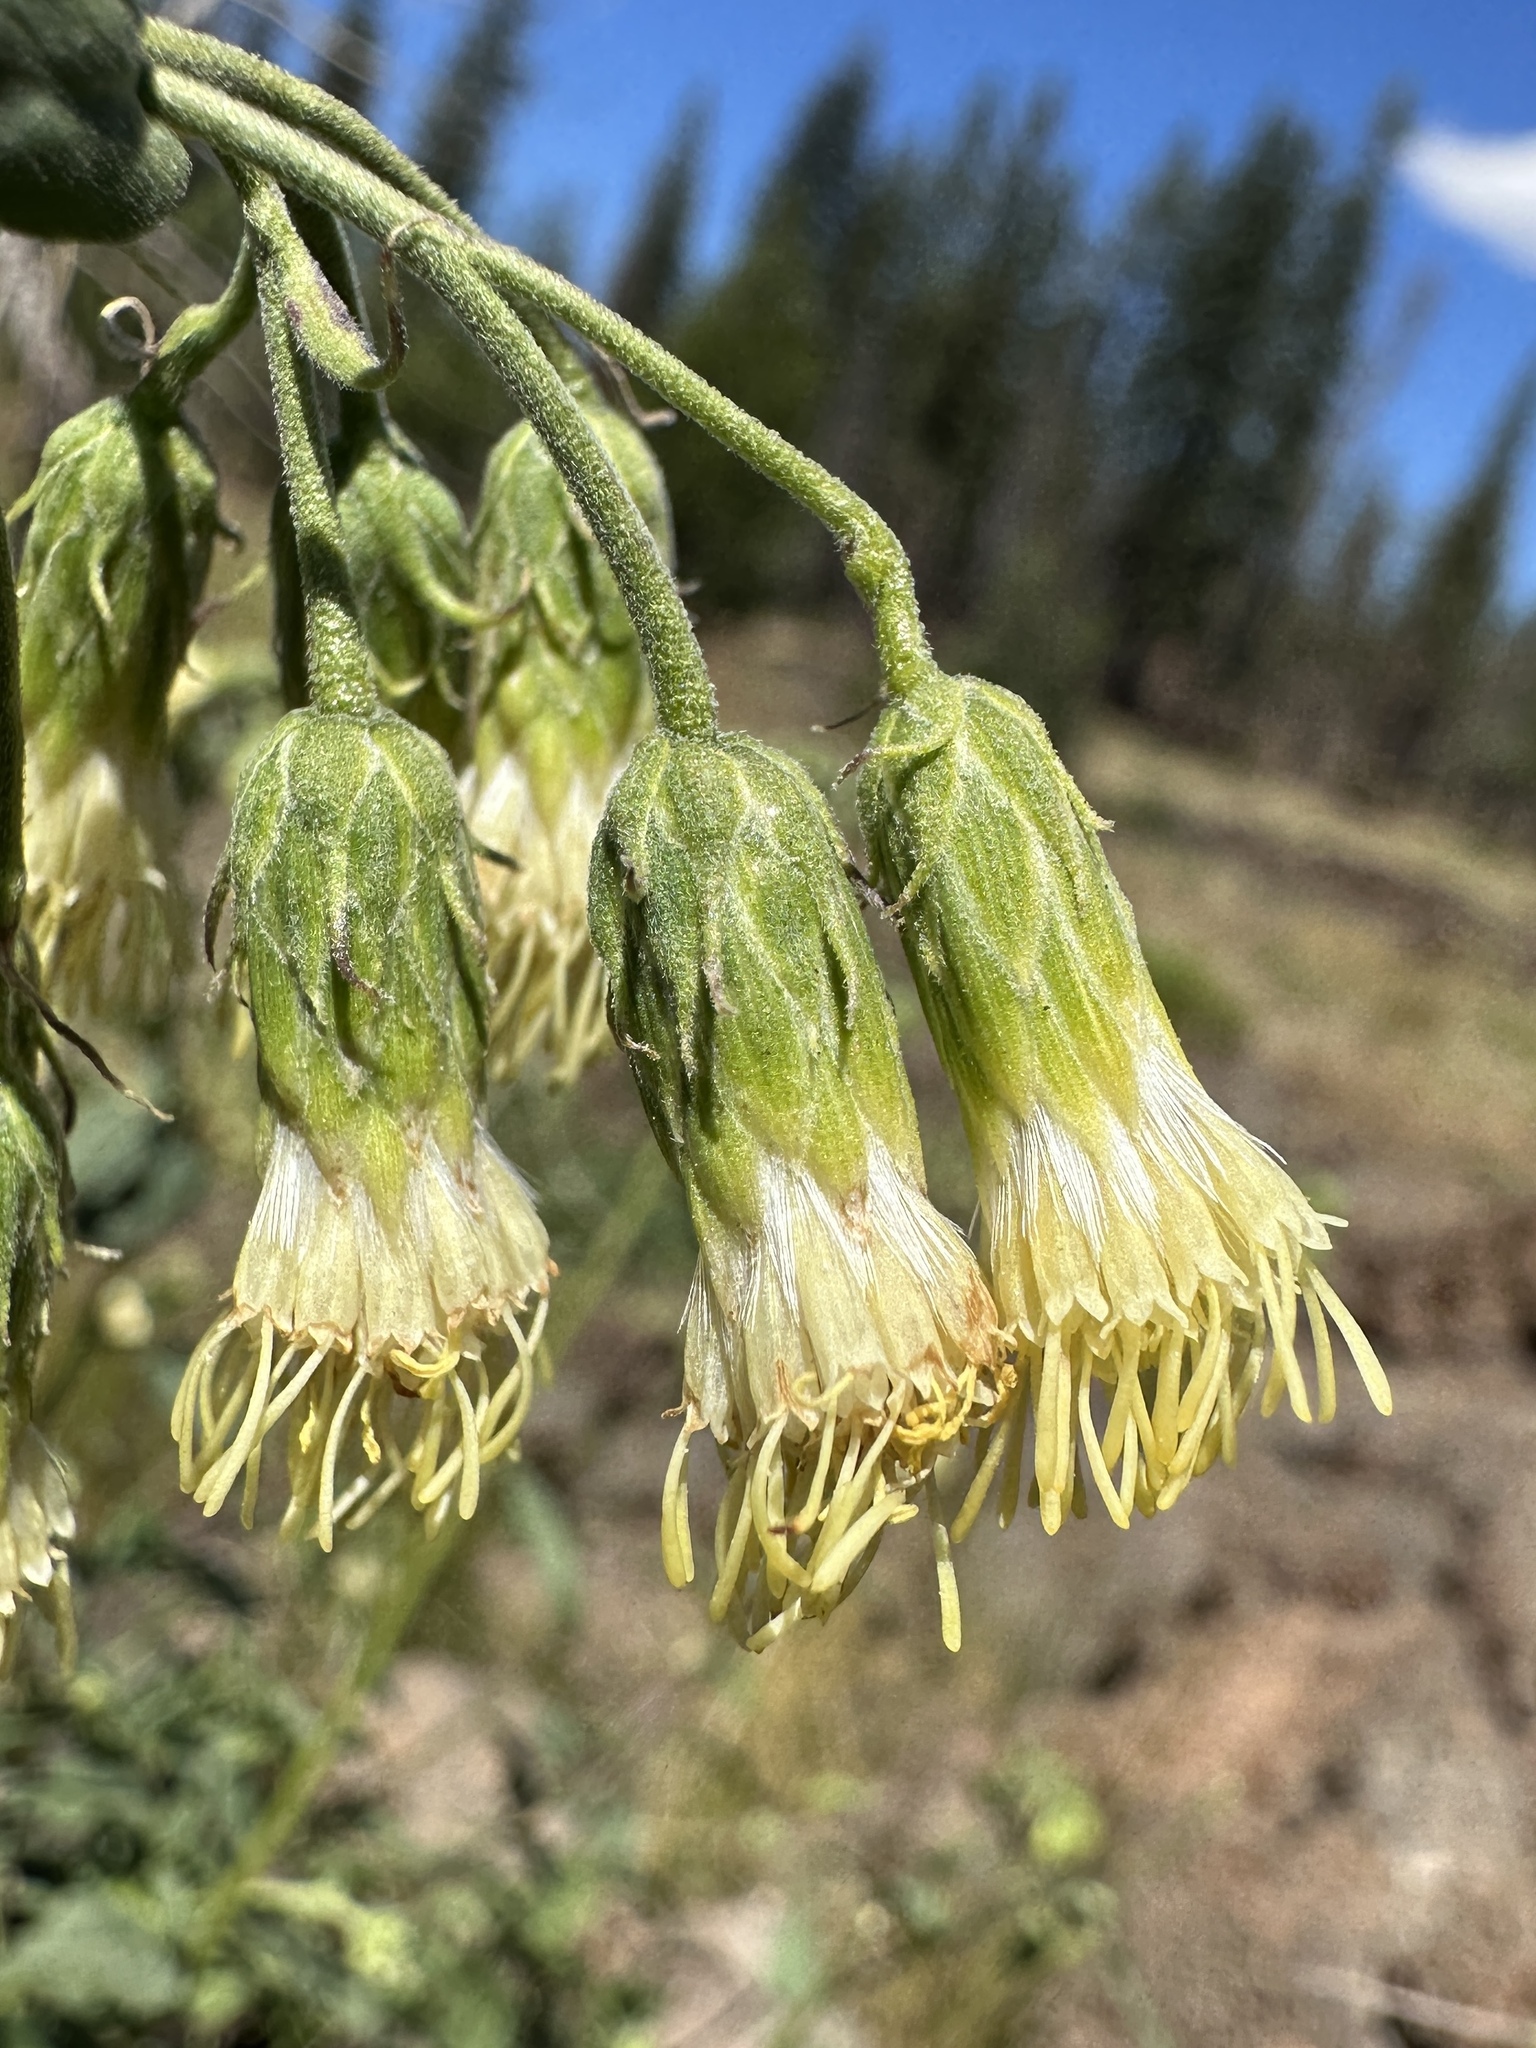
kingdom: Plantae
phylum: Tracheophyta
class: Magnoliopsida
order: Asterales
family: Asteraceae
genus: Brickellia
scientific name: Brickellia grandiflora
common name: Large-flowered brickellia
